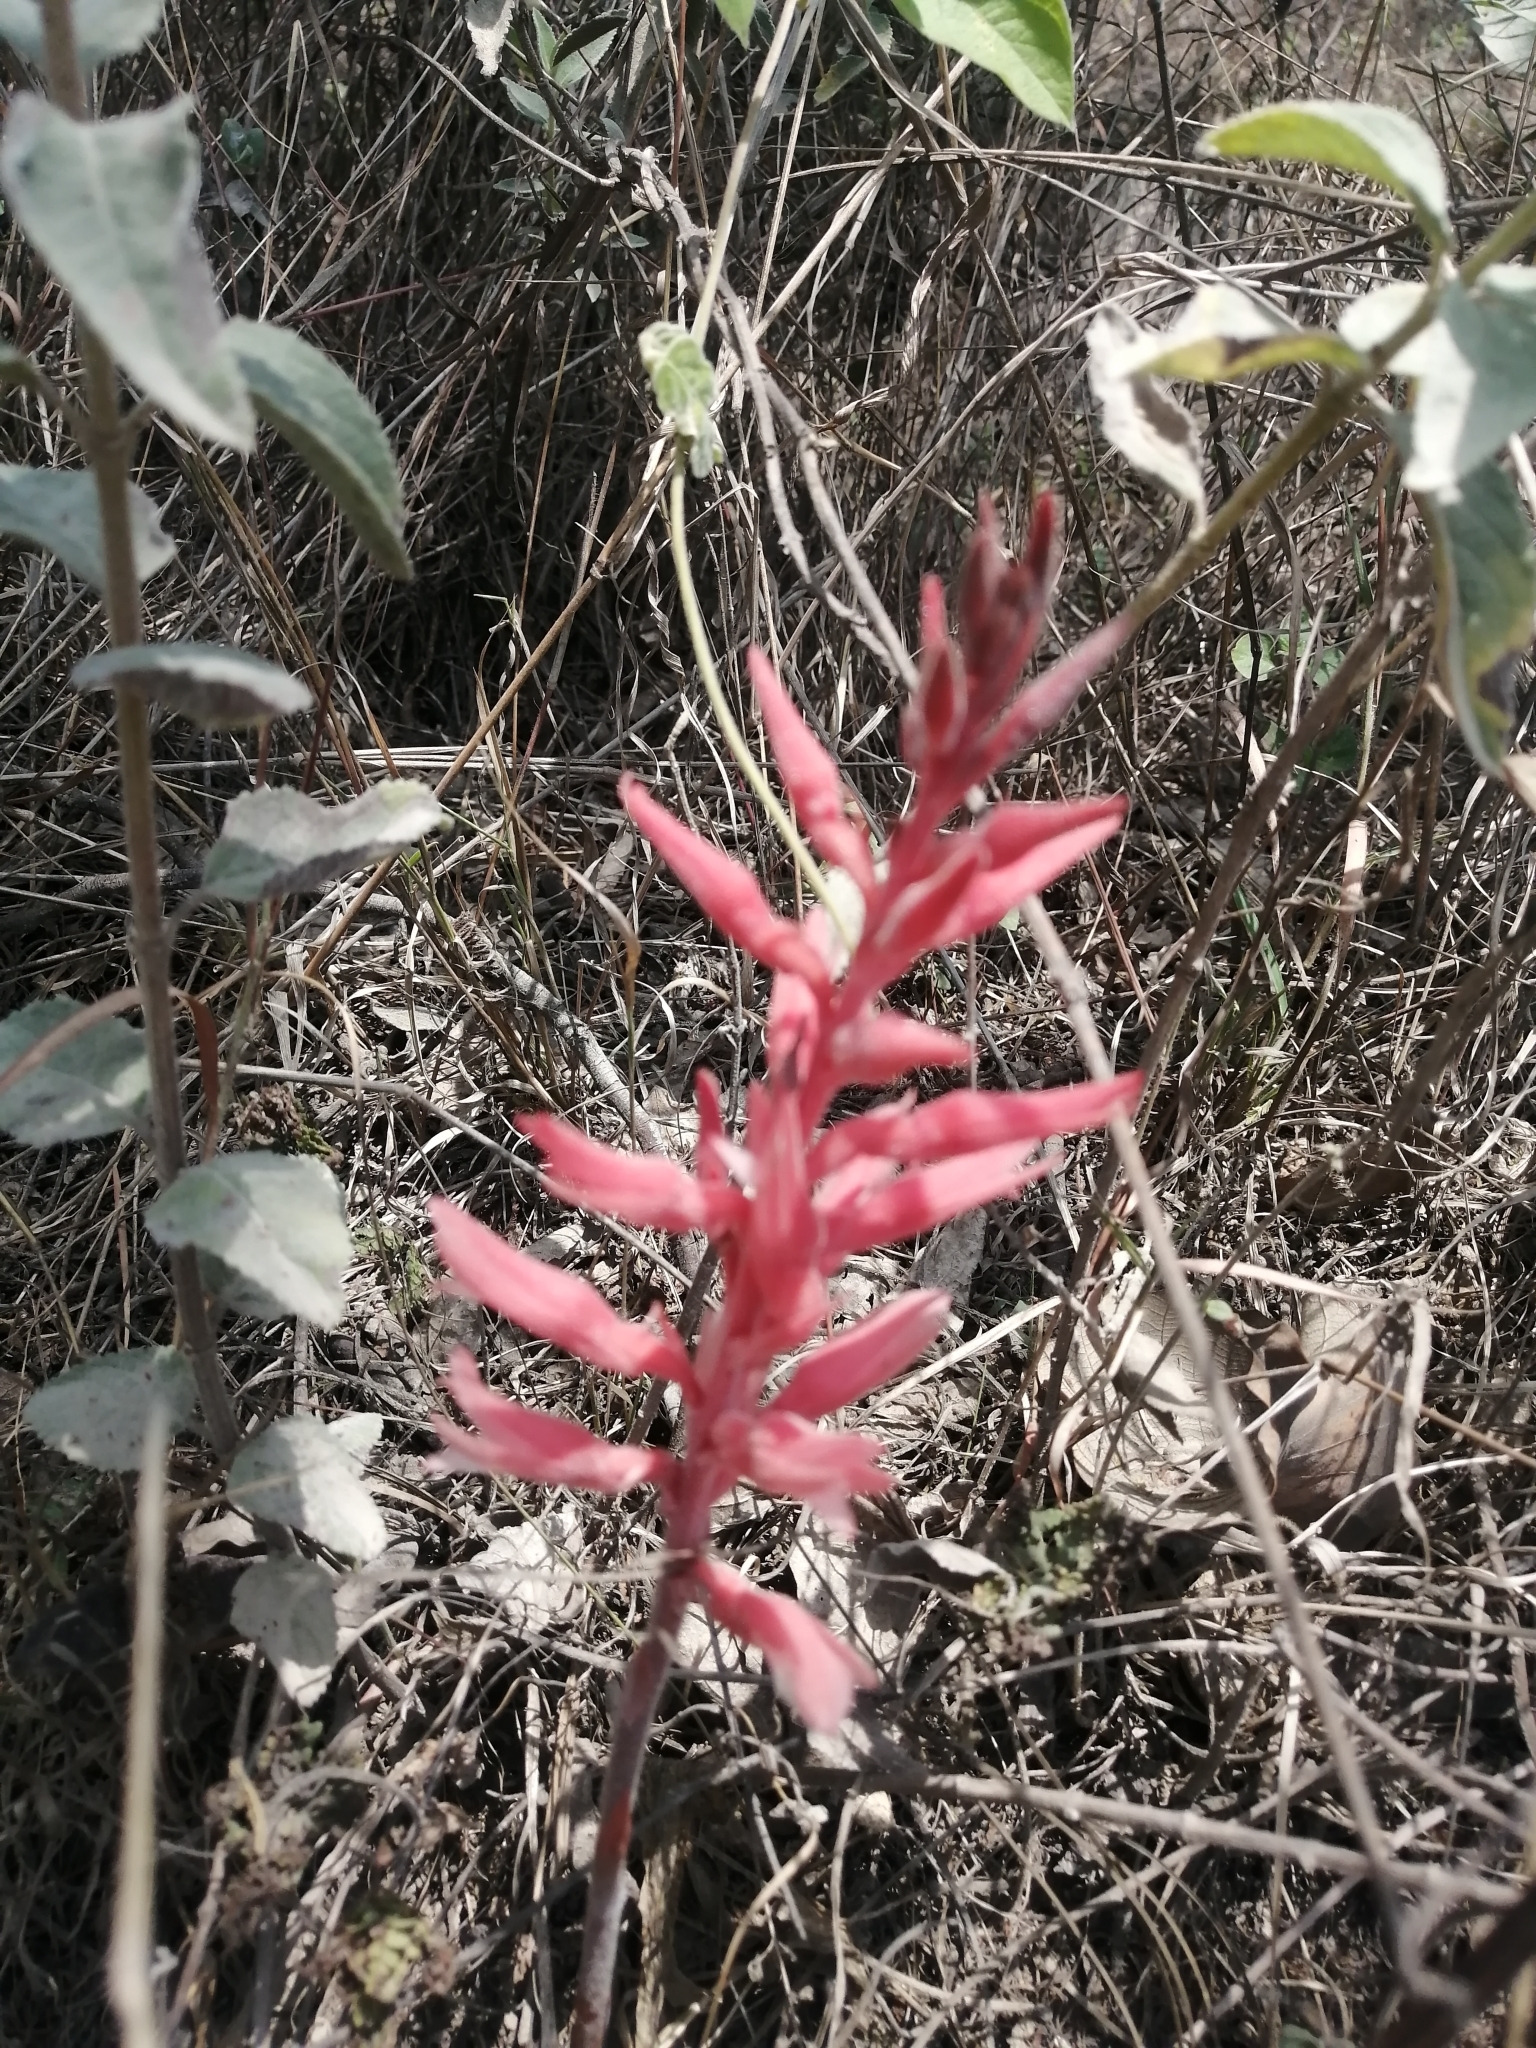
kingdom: Plantae
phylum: Tracheophyta
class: Liliopsida
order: Asparagales
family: Orchidaceae
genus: Sacoila
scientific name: Sacoila lanceolata
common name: Leafless beaked ladiestresses
